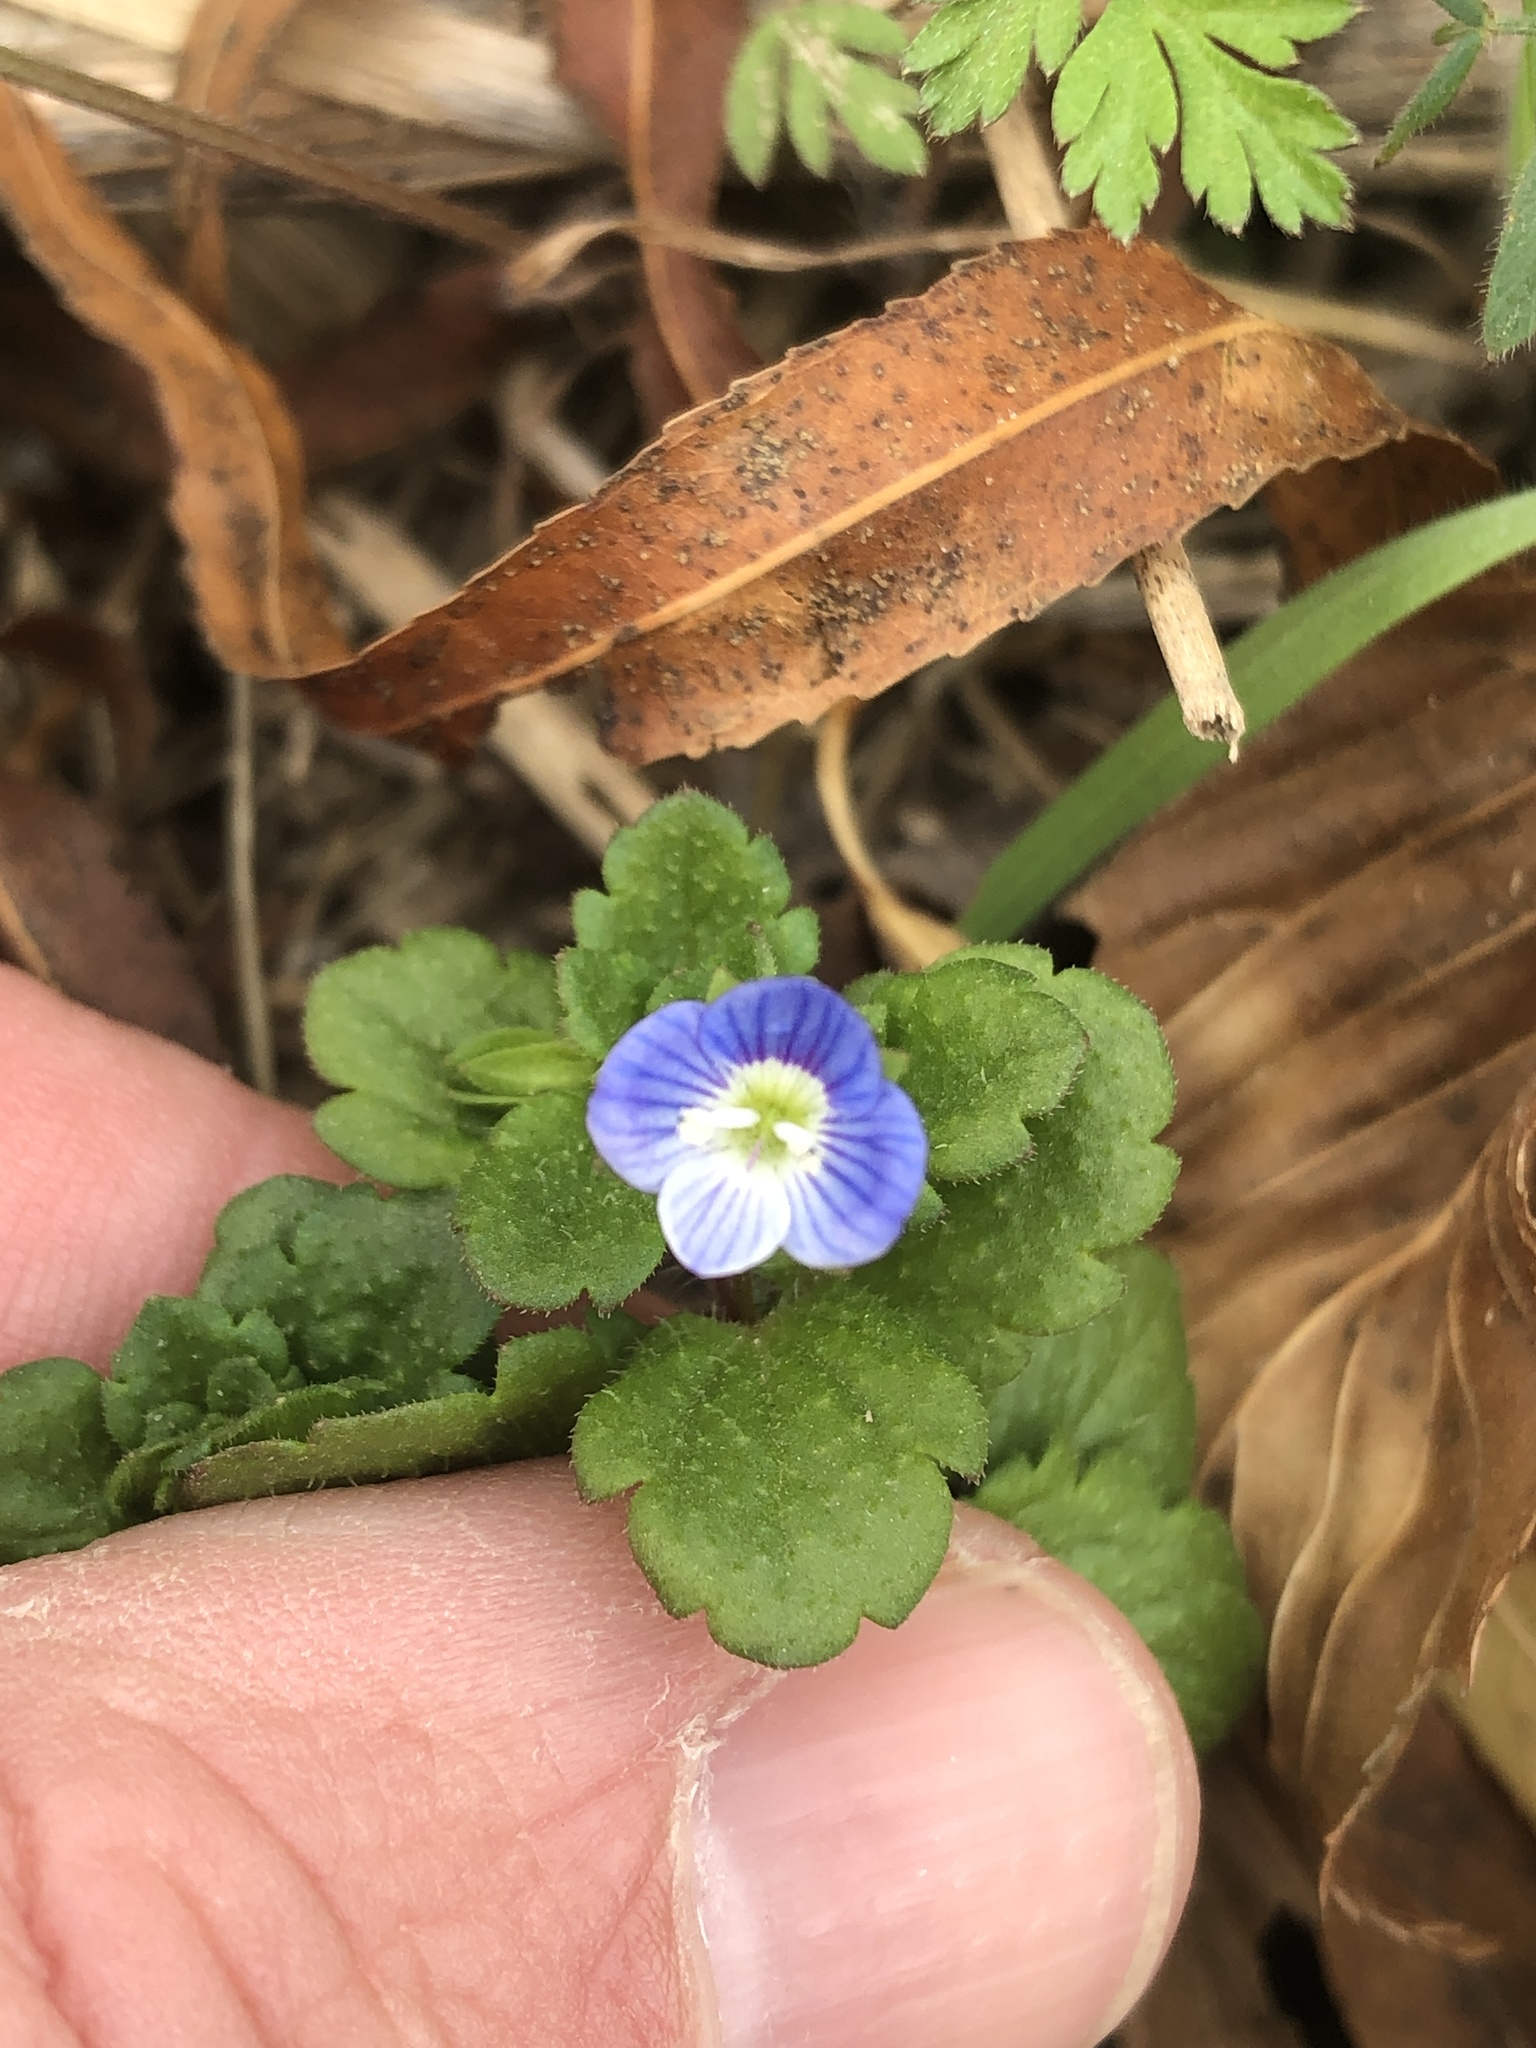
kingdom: Plantae
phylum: Tracheophyta
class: Magnoliopsida
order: Lamiales
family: Plantaginaceae
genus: Veronica
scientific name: Veronica persica
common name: Common field-speedwell
